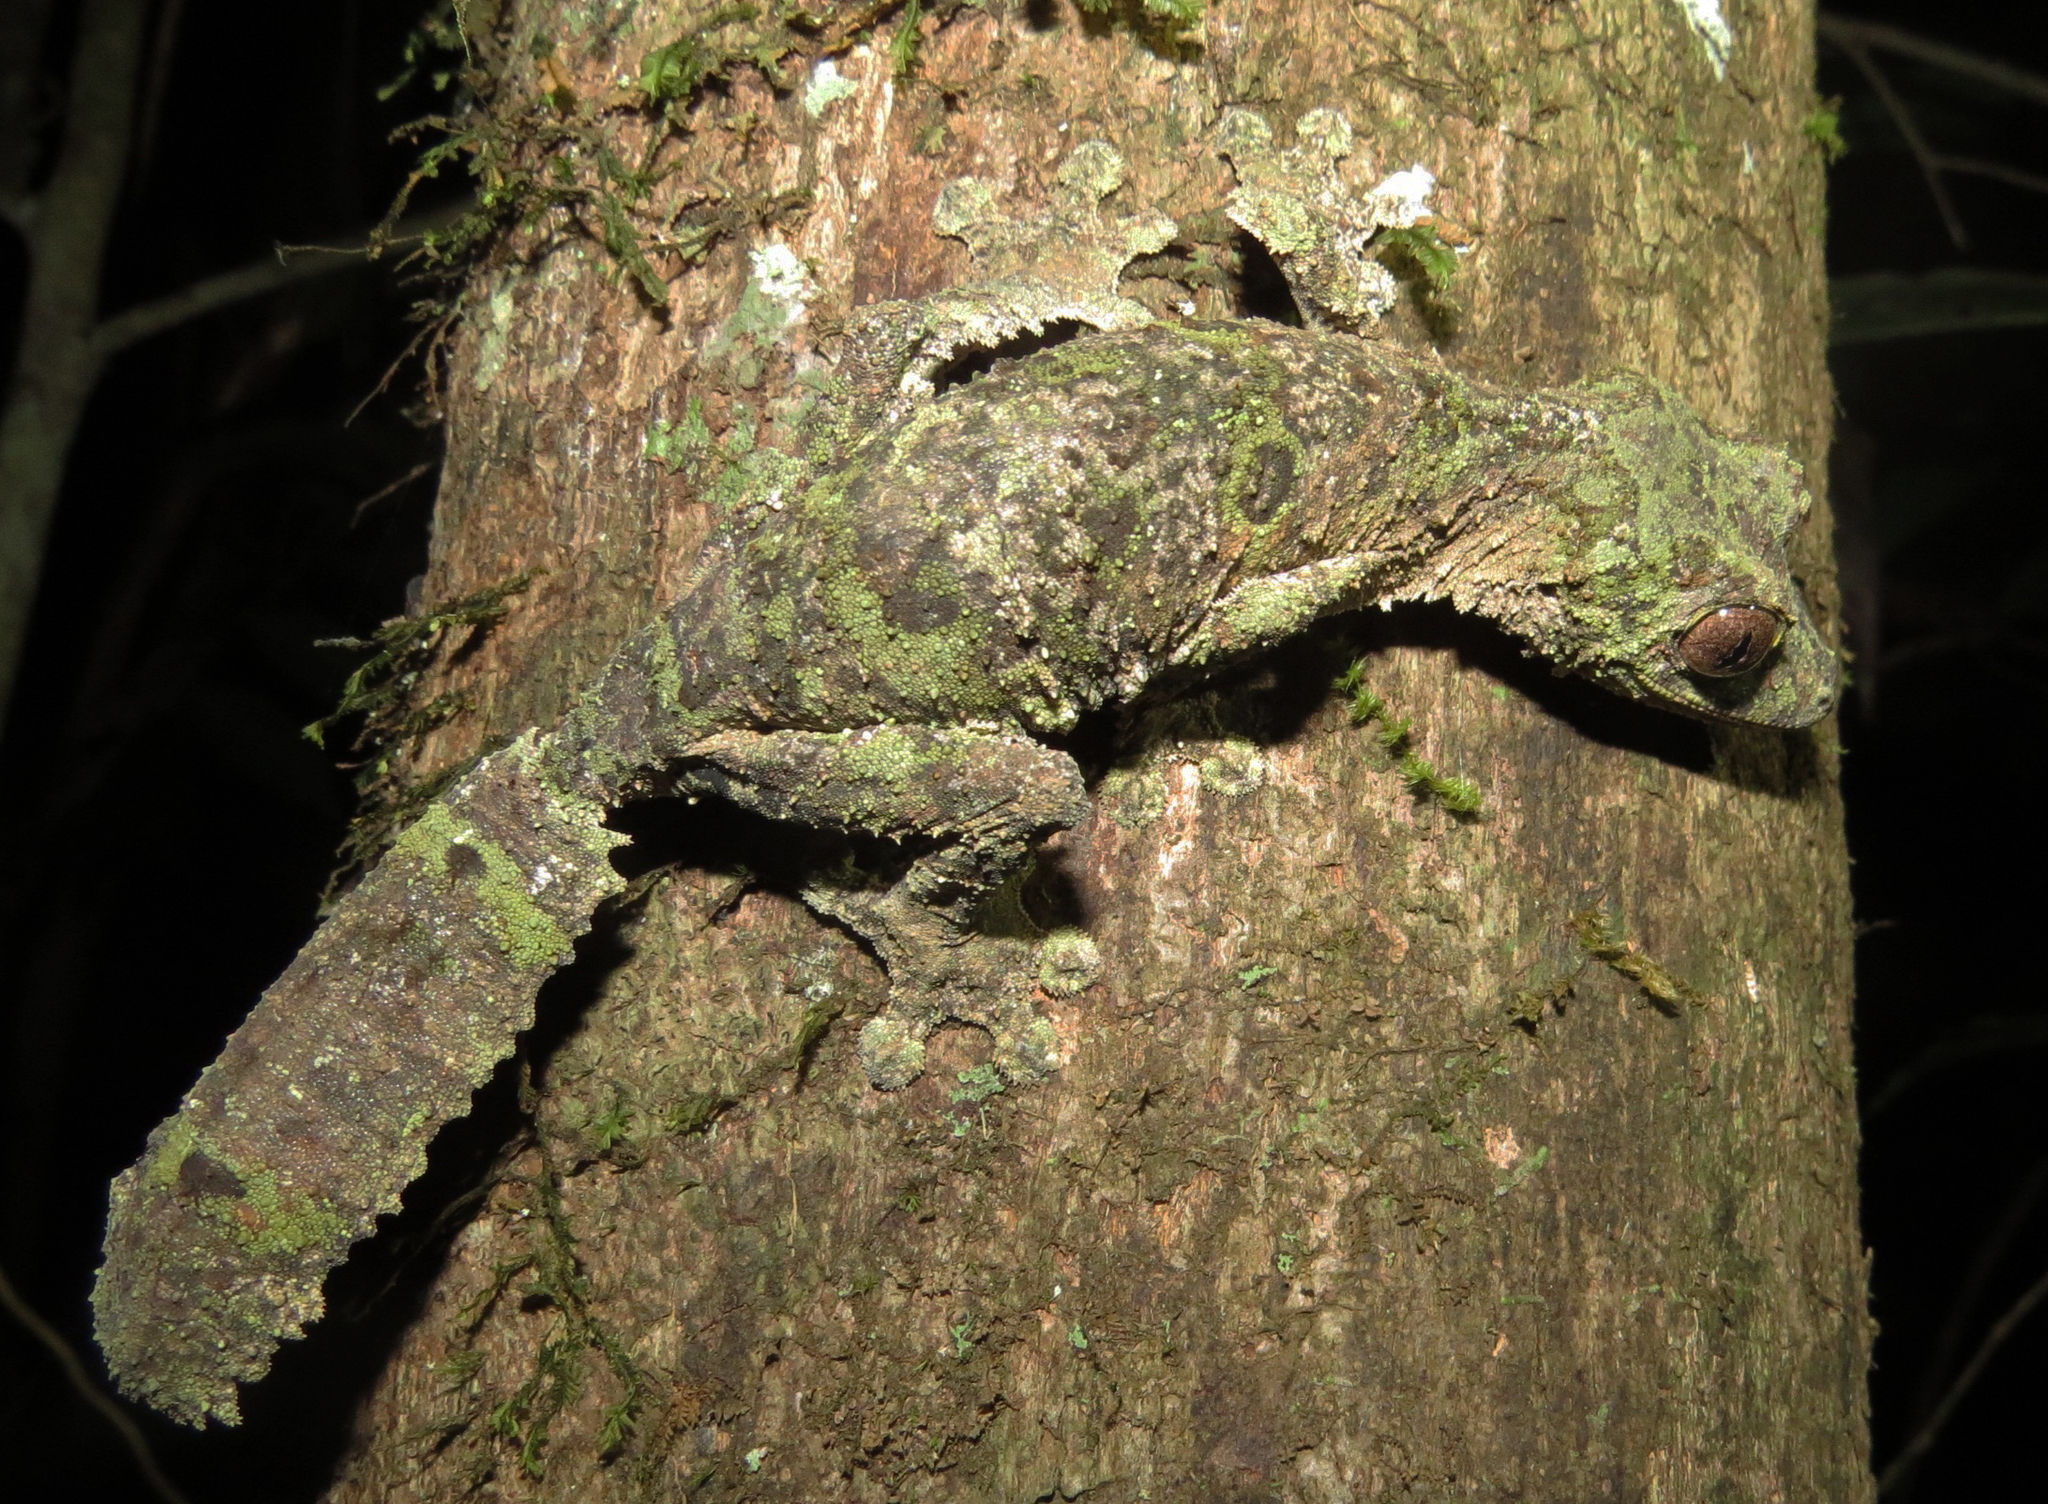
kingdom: Animalia
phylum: Chordata
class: Squamata
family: Gekkonidae
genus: Uroplatus
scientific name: Uroplatus sikorae
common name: Southern flat-tail gecko
